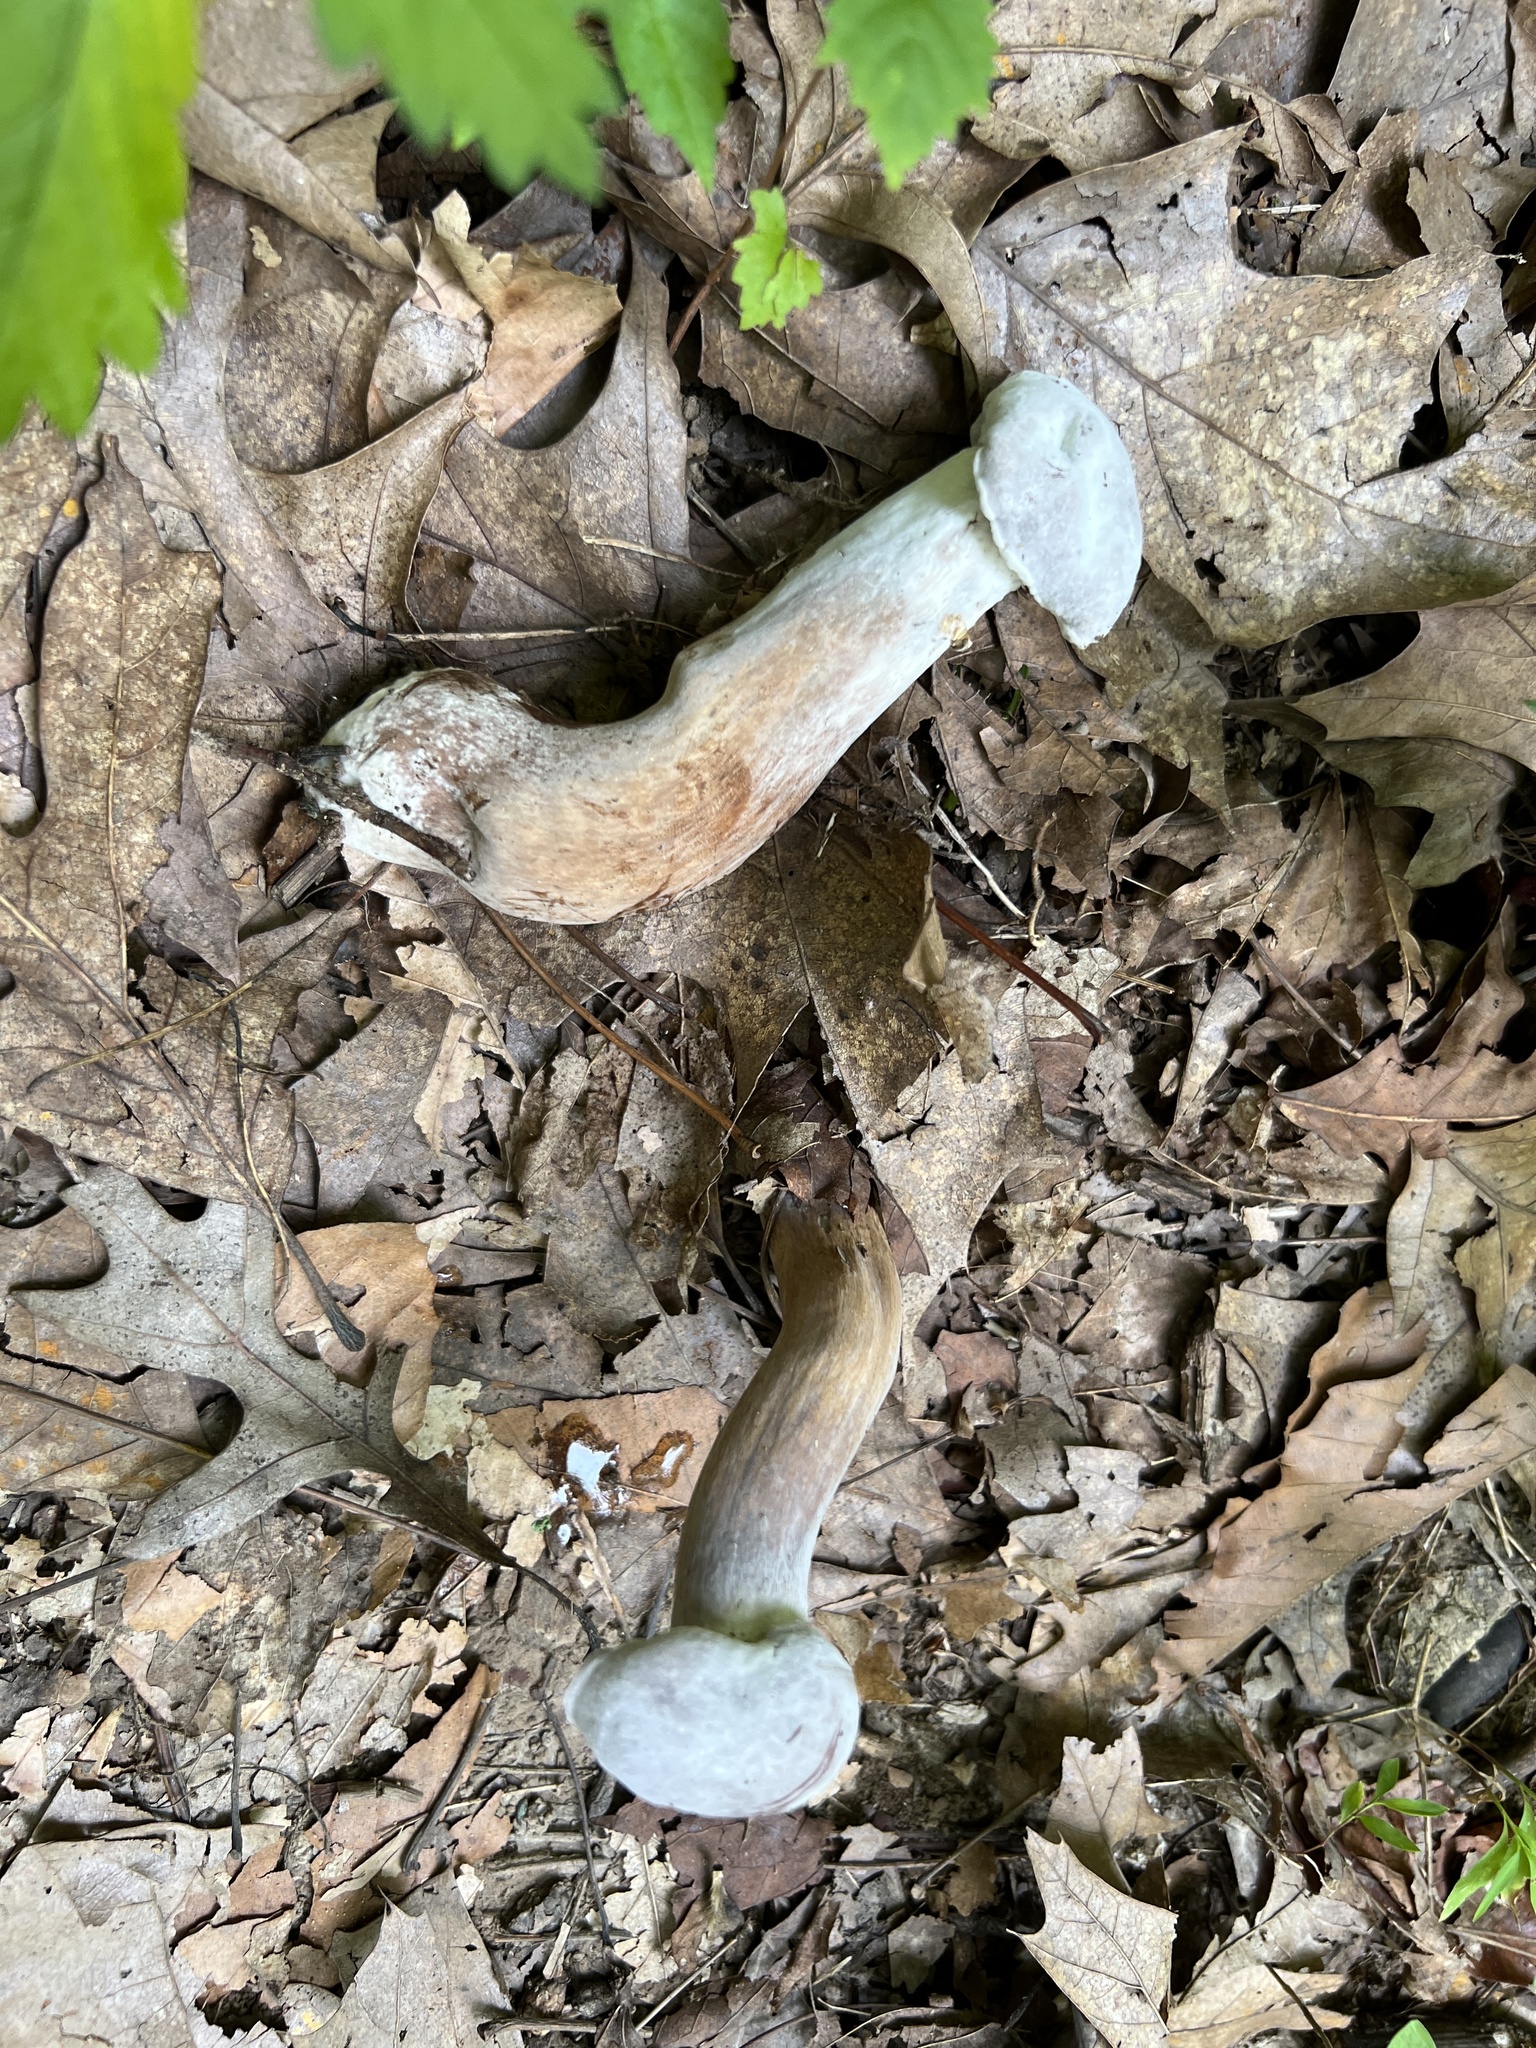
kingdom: Fungi
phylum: Ascomycota
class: Sordariomycetes
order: Hypocreales
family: Hypocreaceae
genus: Hypomyces
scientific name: Hypomyces chrysospermus
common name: Bolete mould
